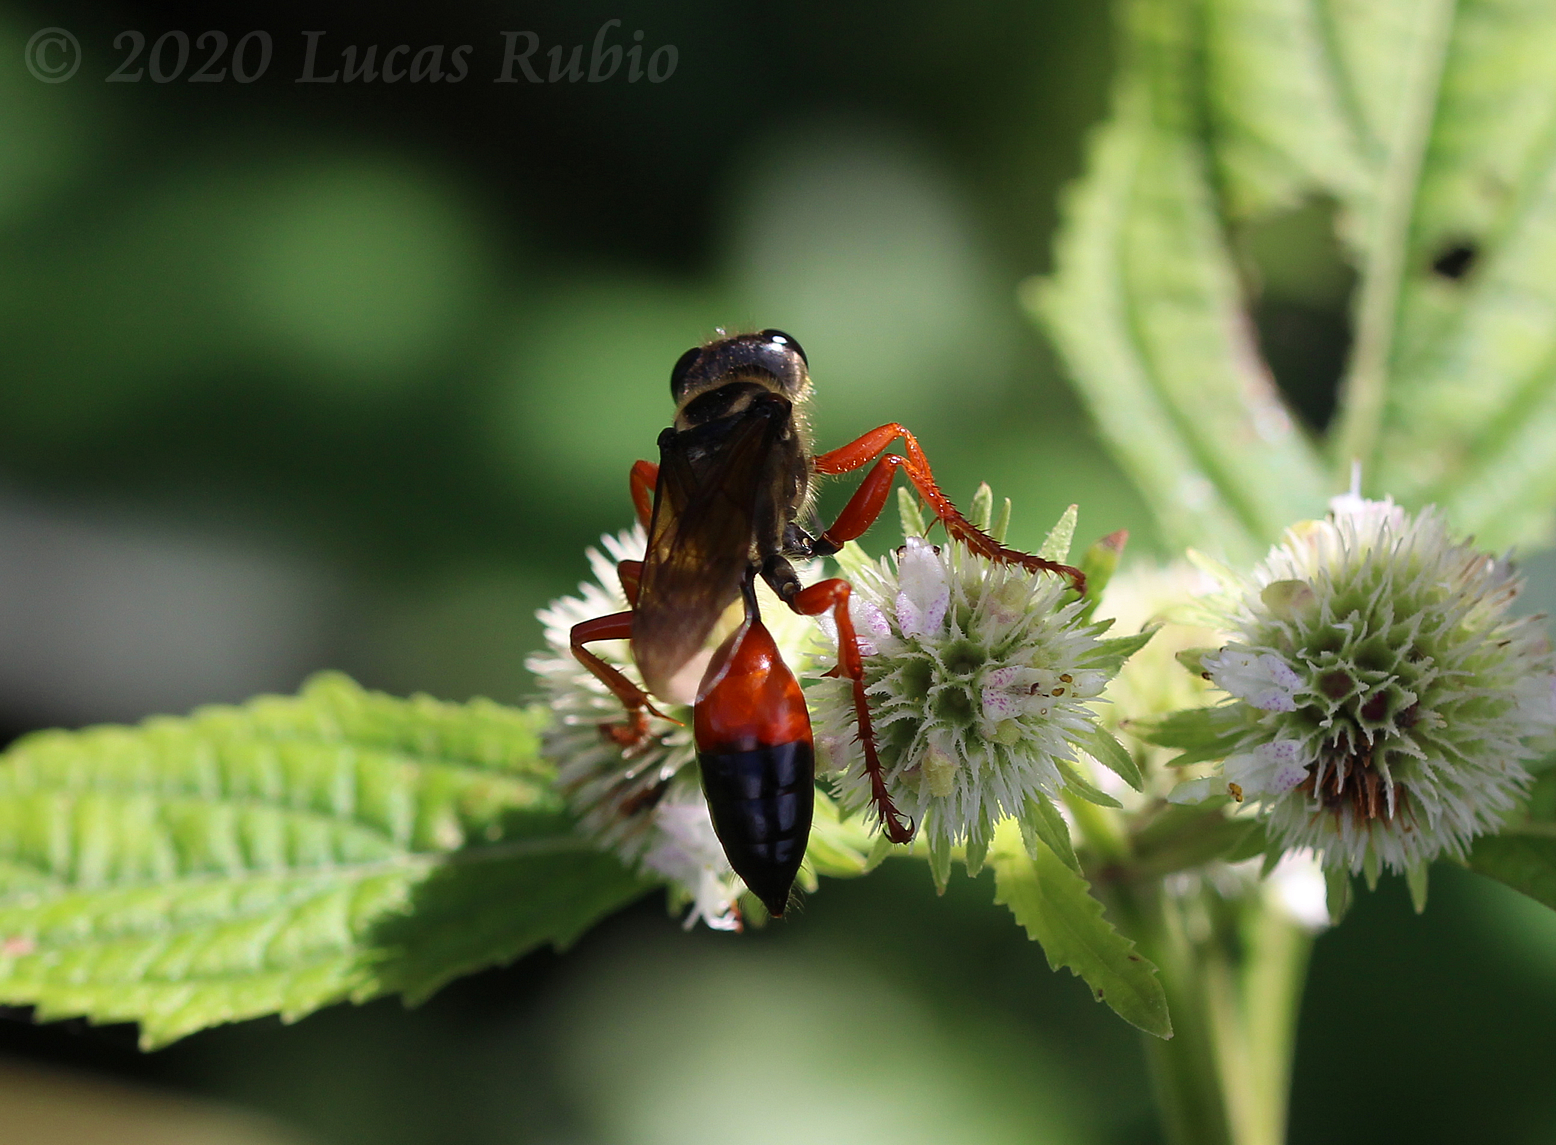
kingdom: Animalia
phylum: Arthropoda
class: Insecta
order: Hymenoptera
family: Sphecidae
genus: Sphex
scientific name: Sphex ichneumoneus
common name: Great golden digger wasp
